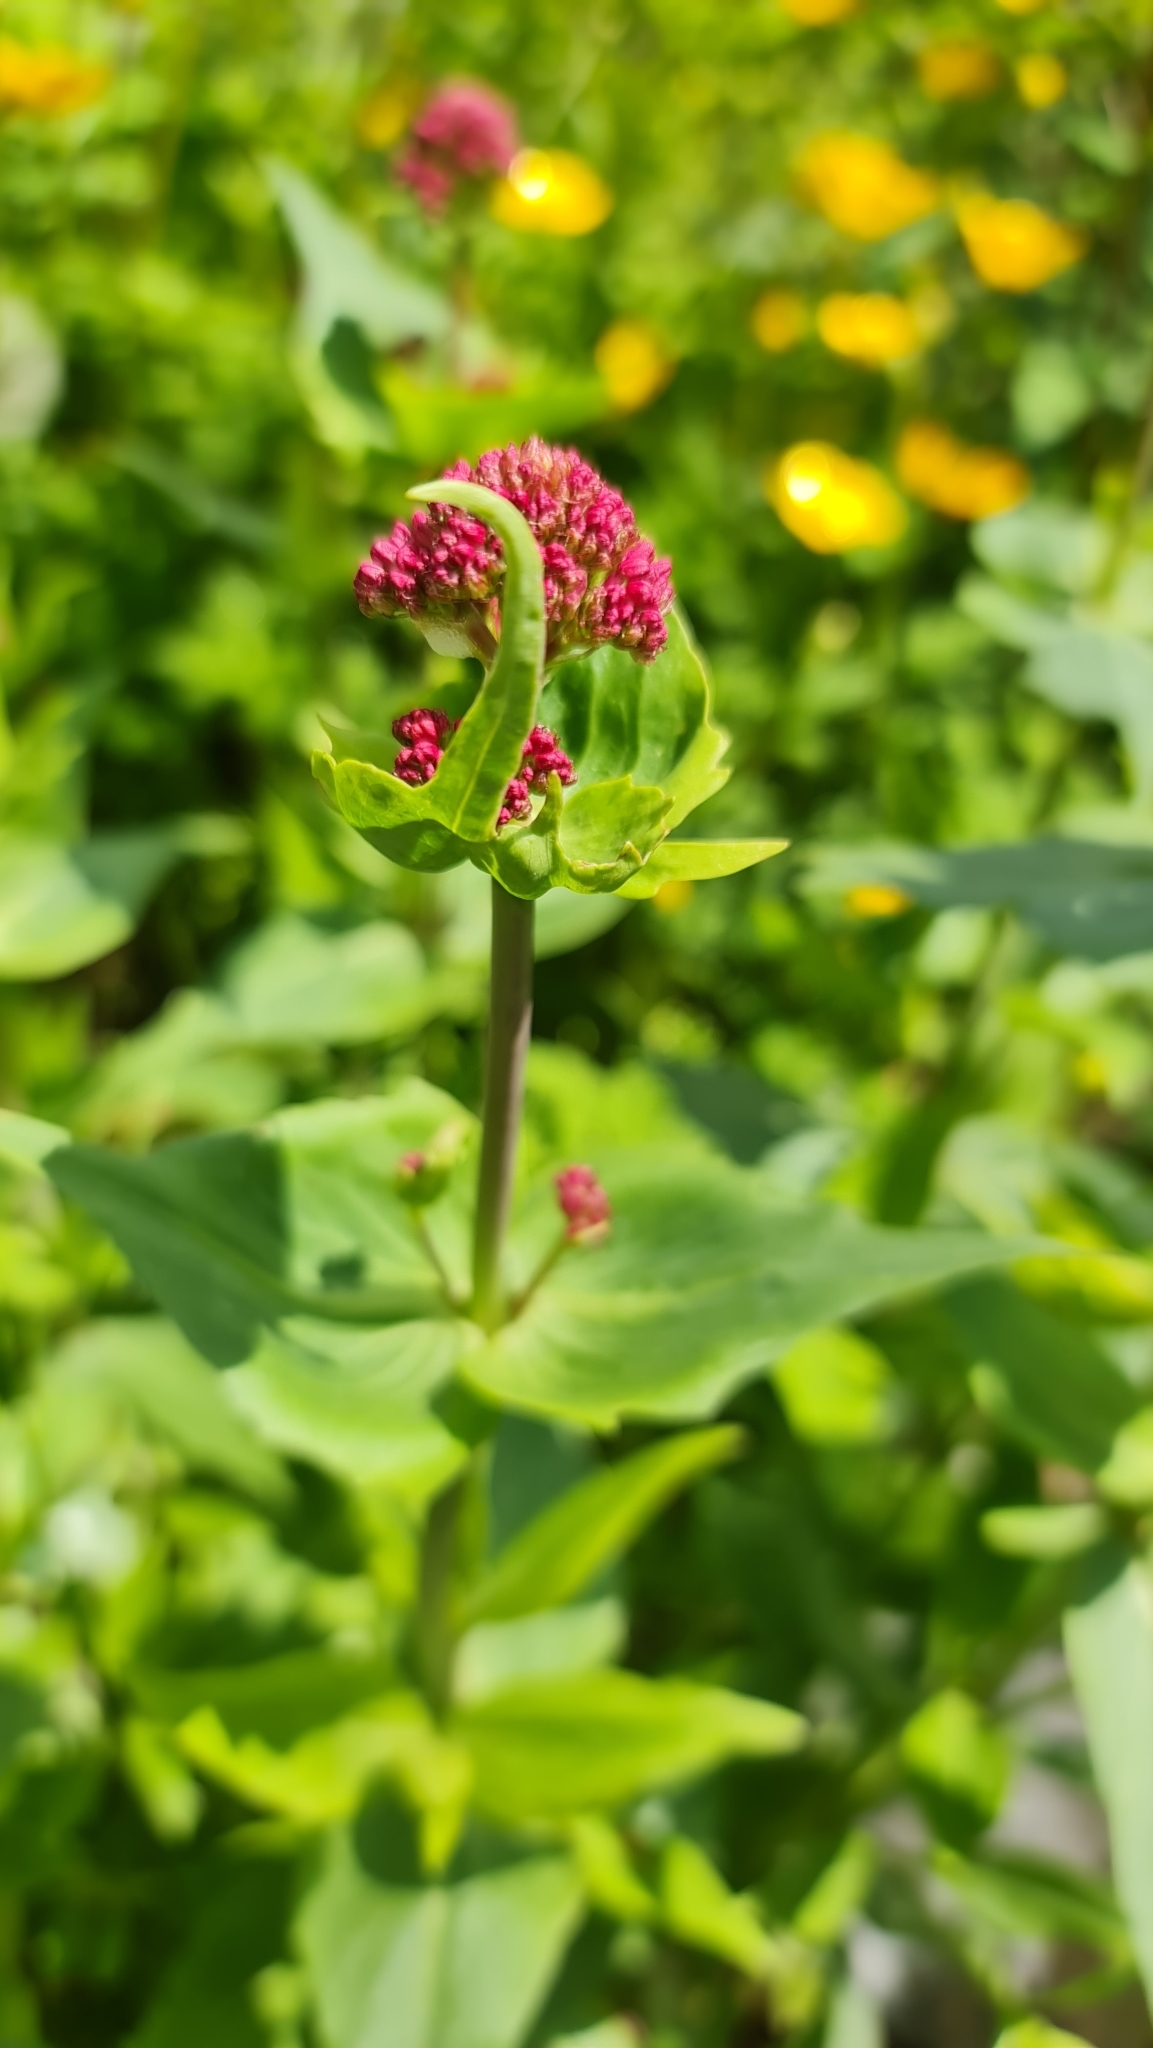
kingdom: Plantae
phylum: Tracheophyta
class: Magnoliopsida
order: Dipsacales
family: Caprifoliaceae
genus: Centranthus
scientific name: Centranthus ruber
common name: Red valerian
